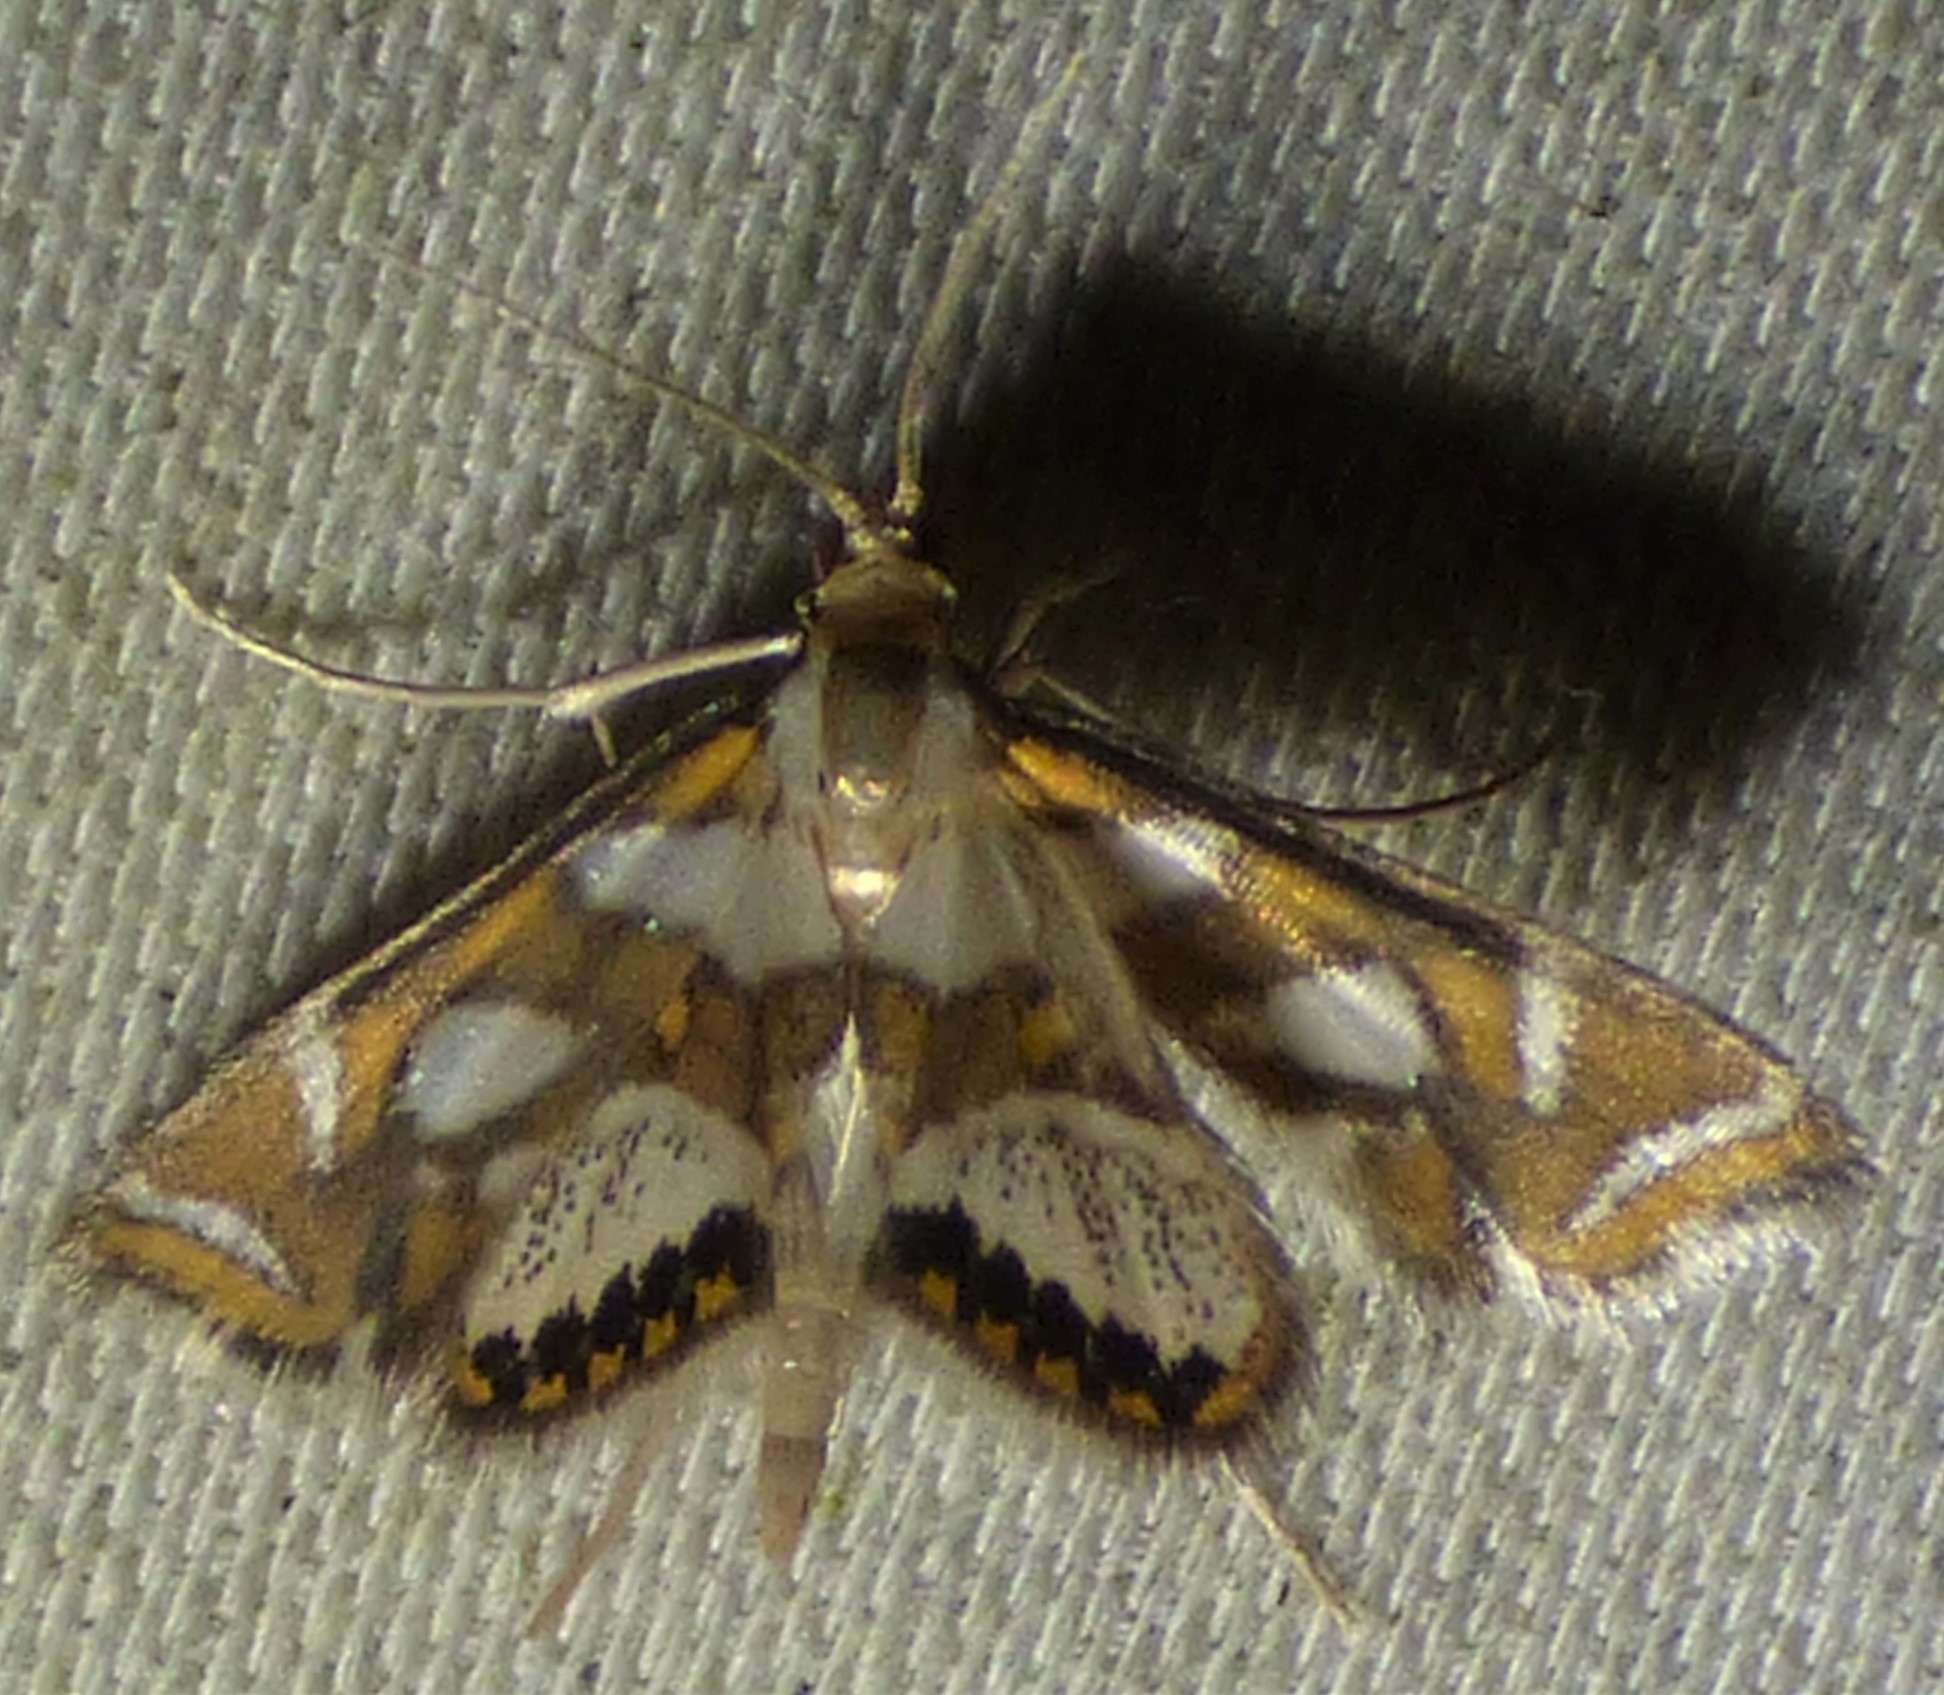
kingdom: Animalia
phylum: Arthropoda
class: Insecta
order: Lepidoptera
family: Crambidae
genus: Chrysendeton
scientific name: Chrysendeton medicinalis
